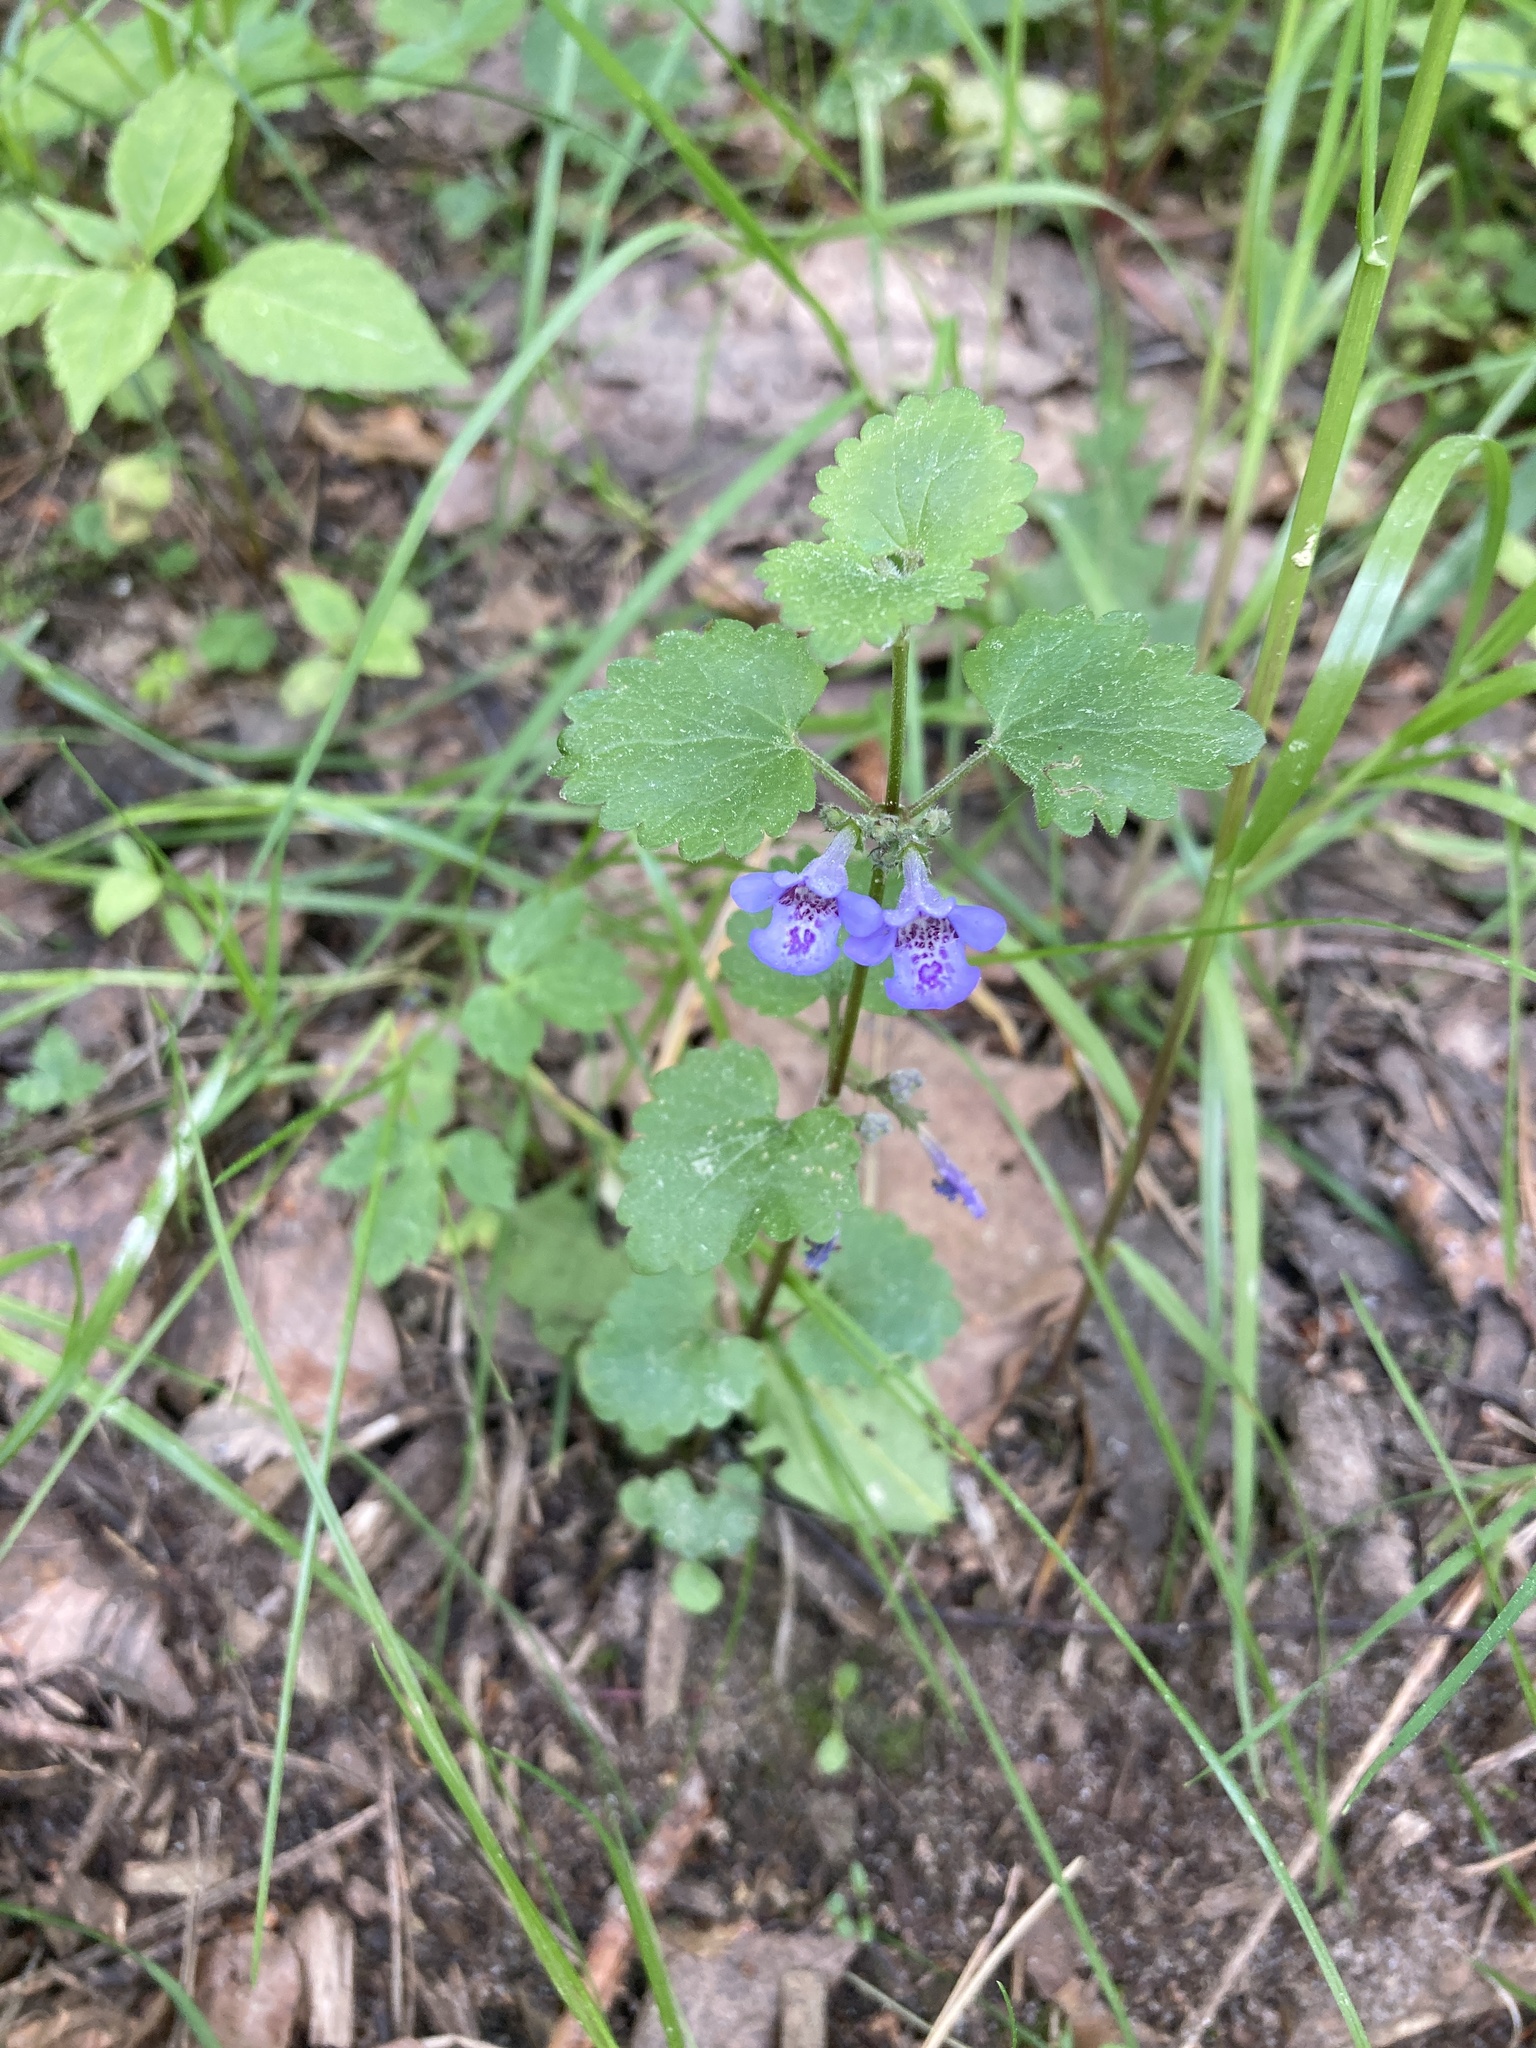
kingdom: Plantae
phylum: Tracheophyta
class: Magnoliopsida
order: Lamiales
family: Lamiaceae
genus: Glechoma
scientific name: Glechoma hederacea
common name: Ground ivy
